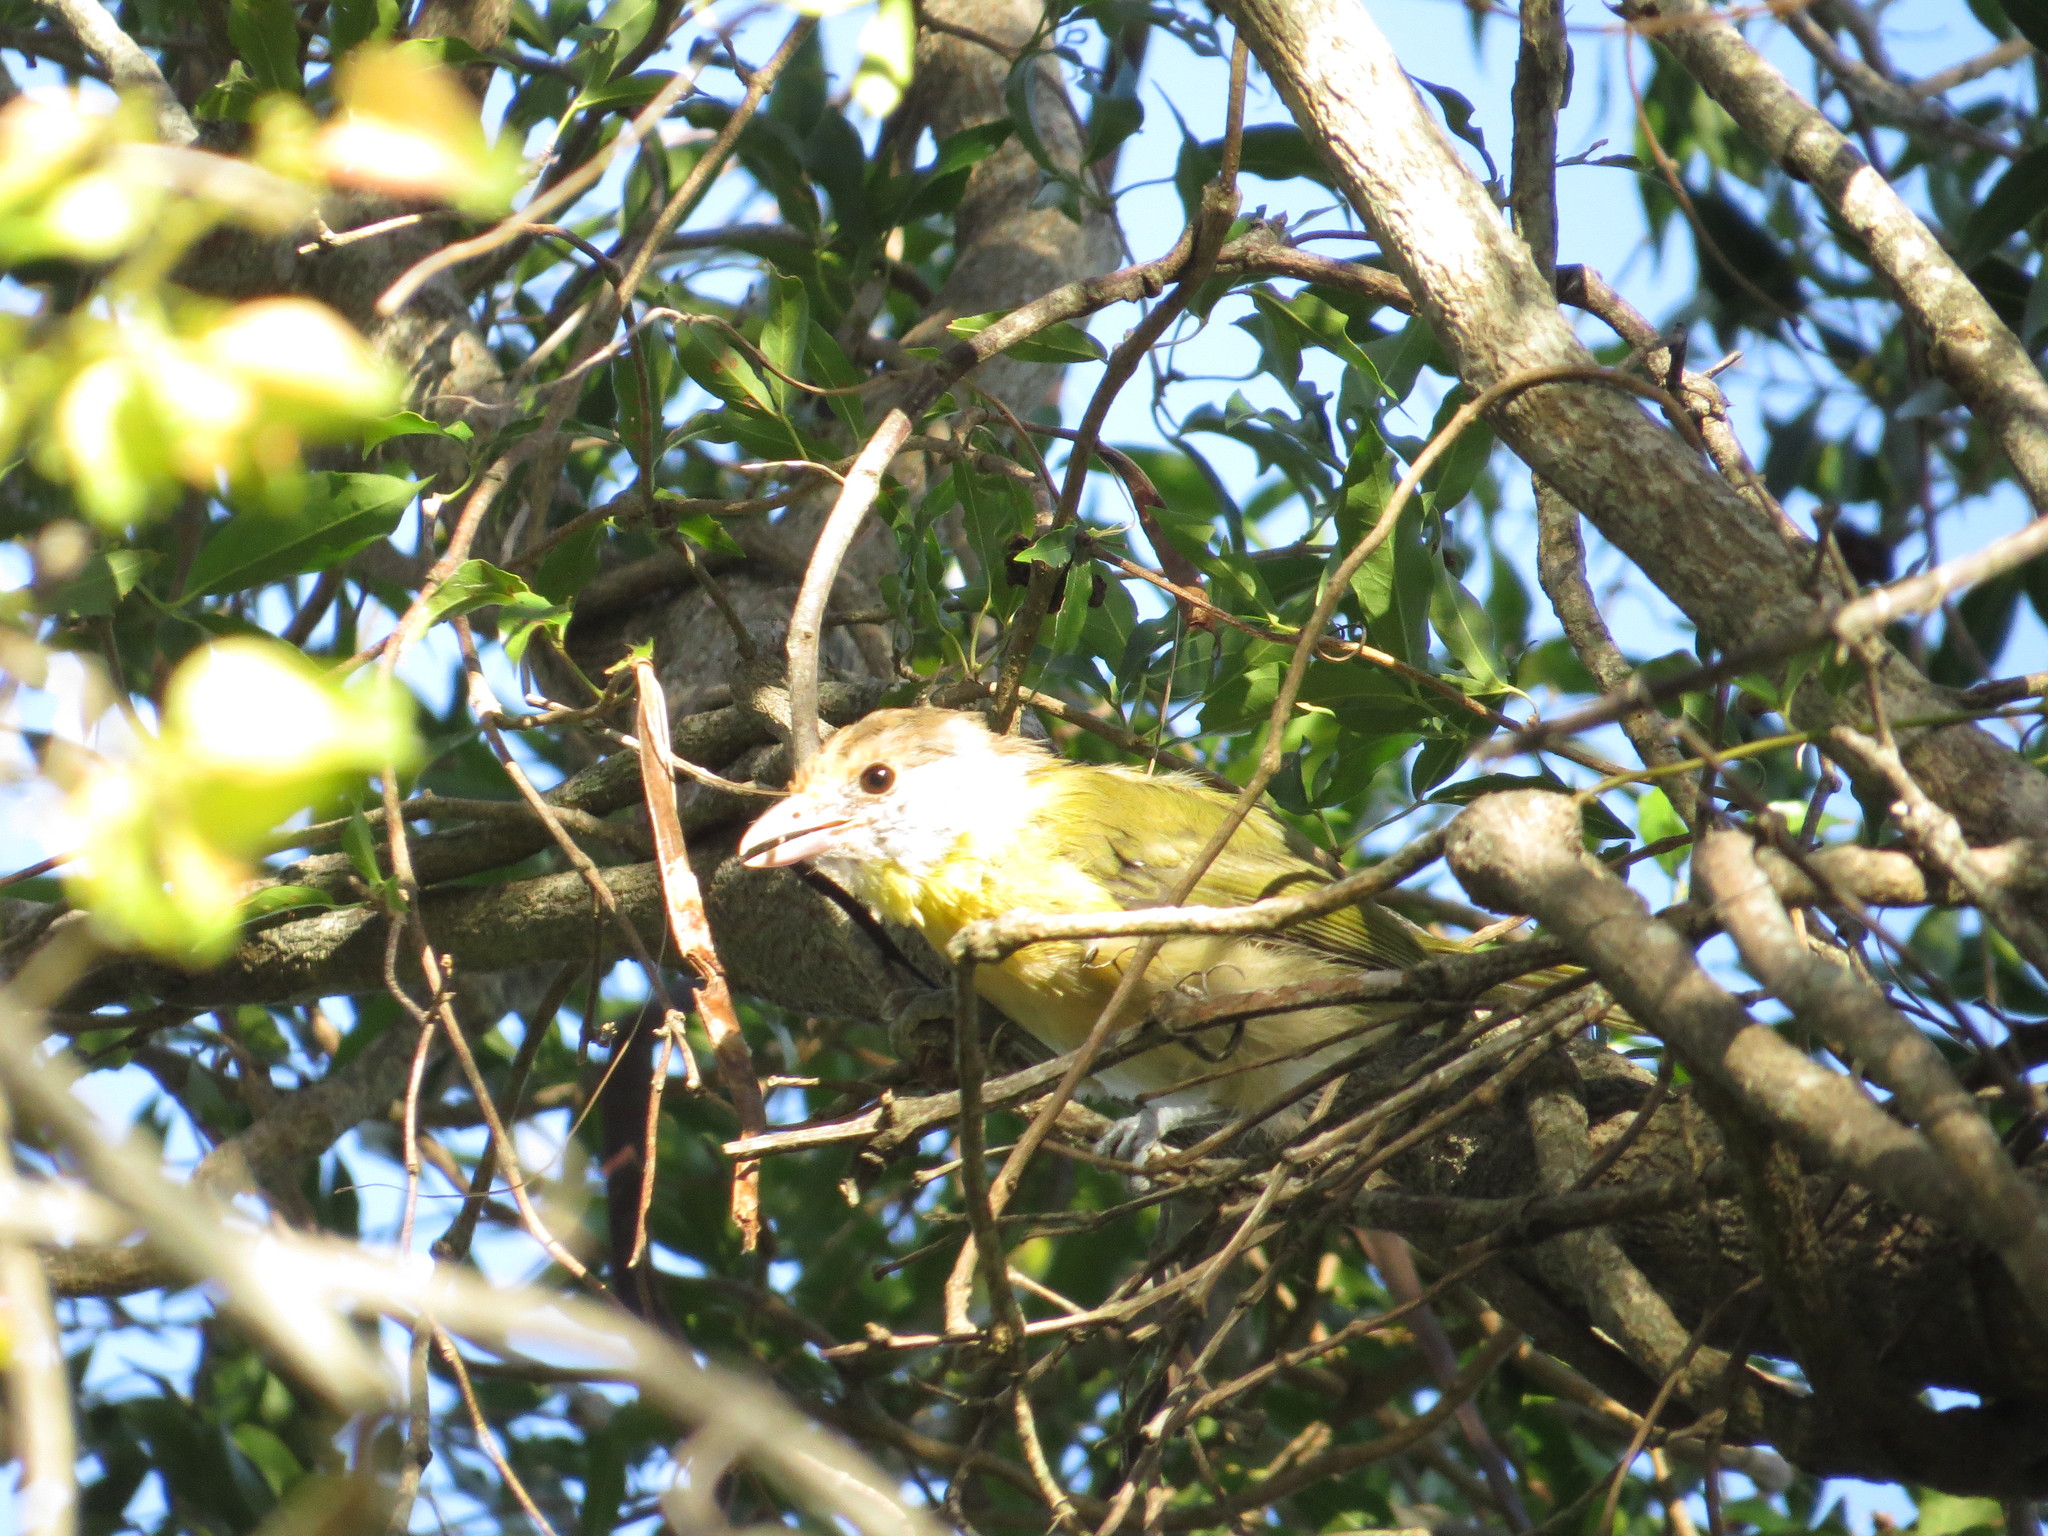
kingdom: Animalia
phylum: Chordata
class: Aves
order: Passeriformes
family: Vireonidae
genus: Cyclarhis
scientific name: Cyclarhis gujanensis
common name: Rufous-browed peppershrike
